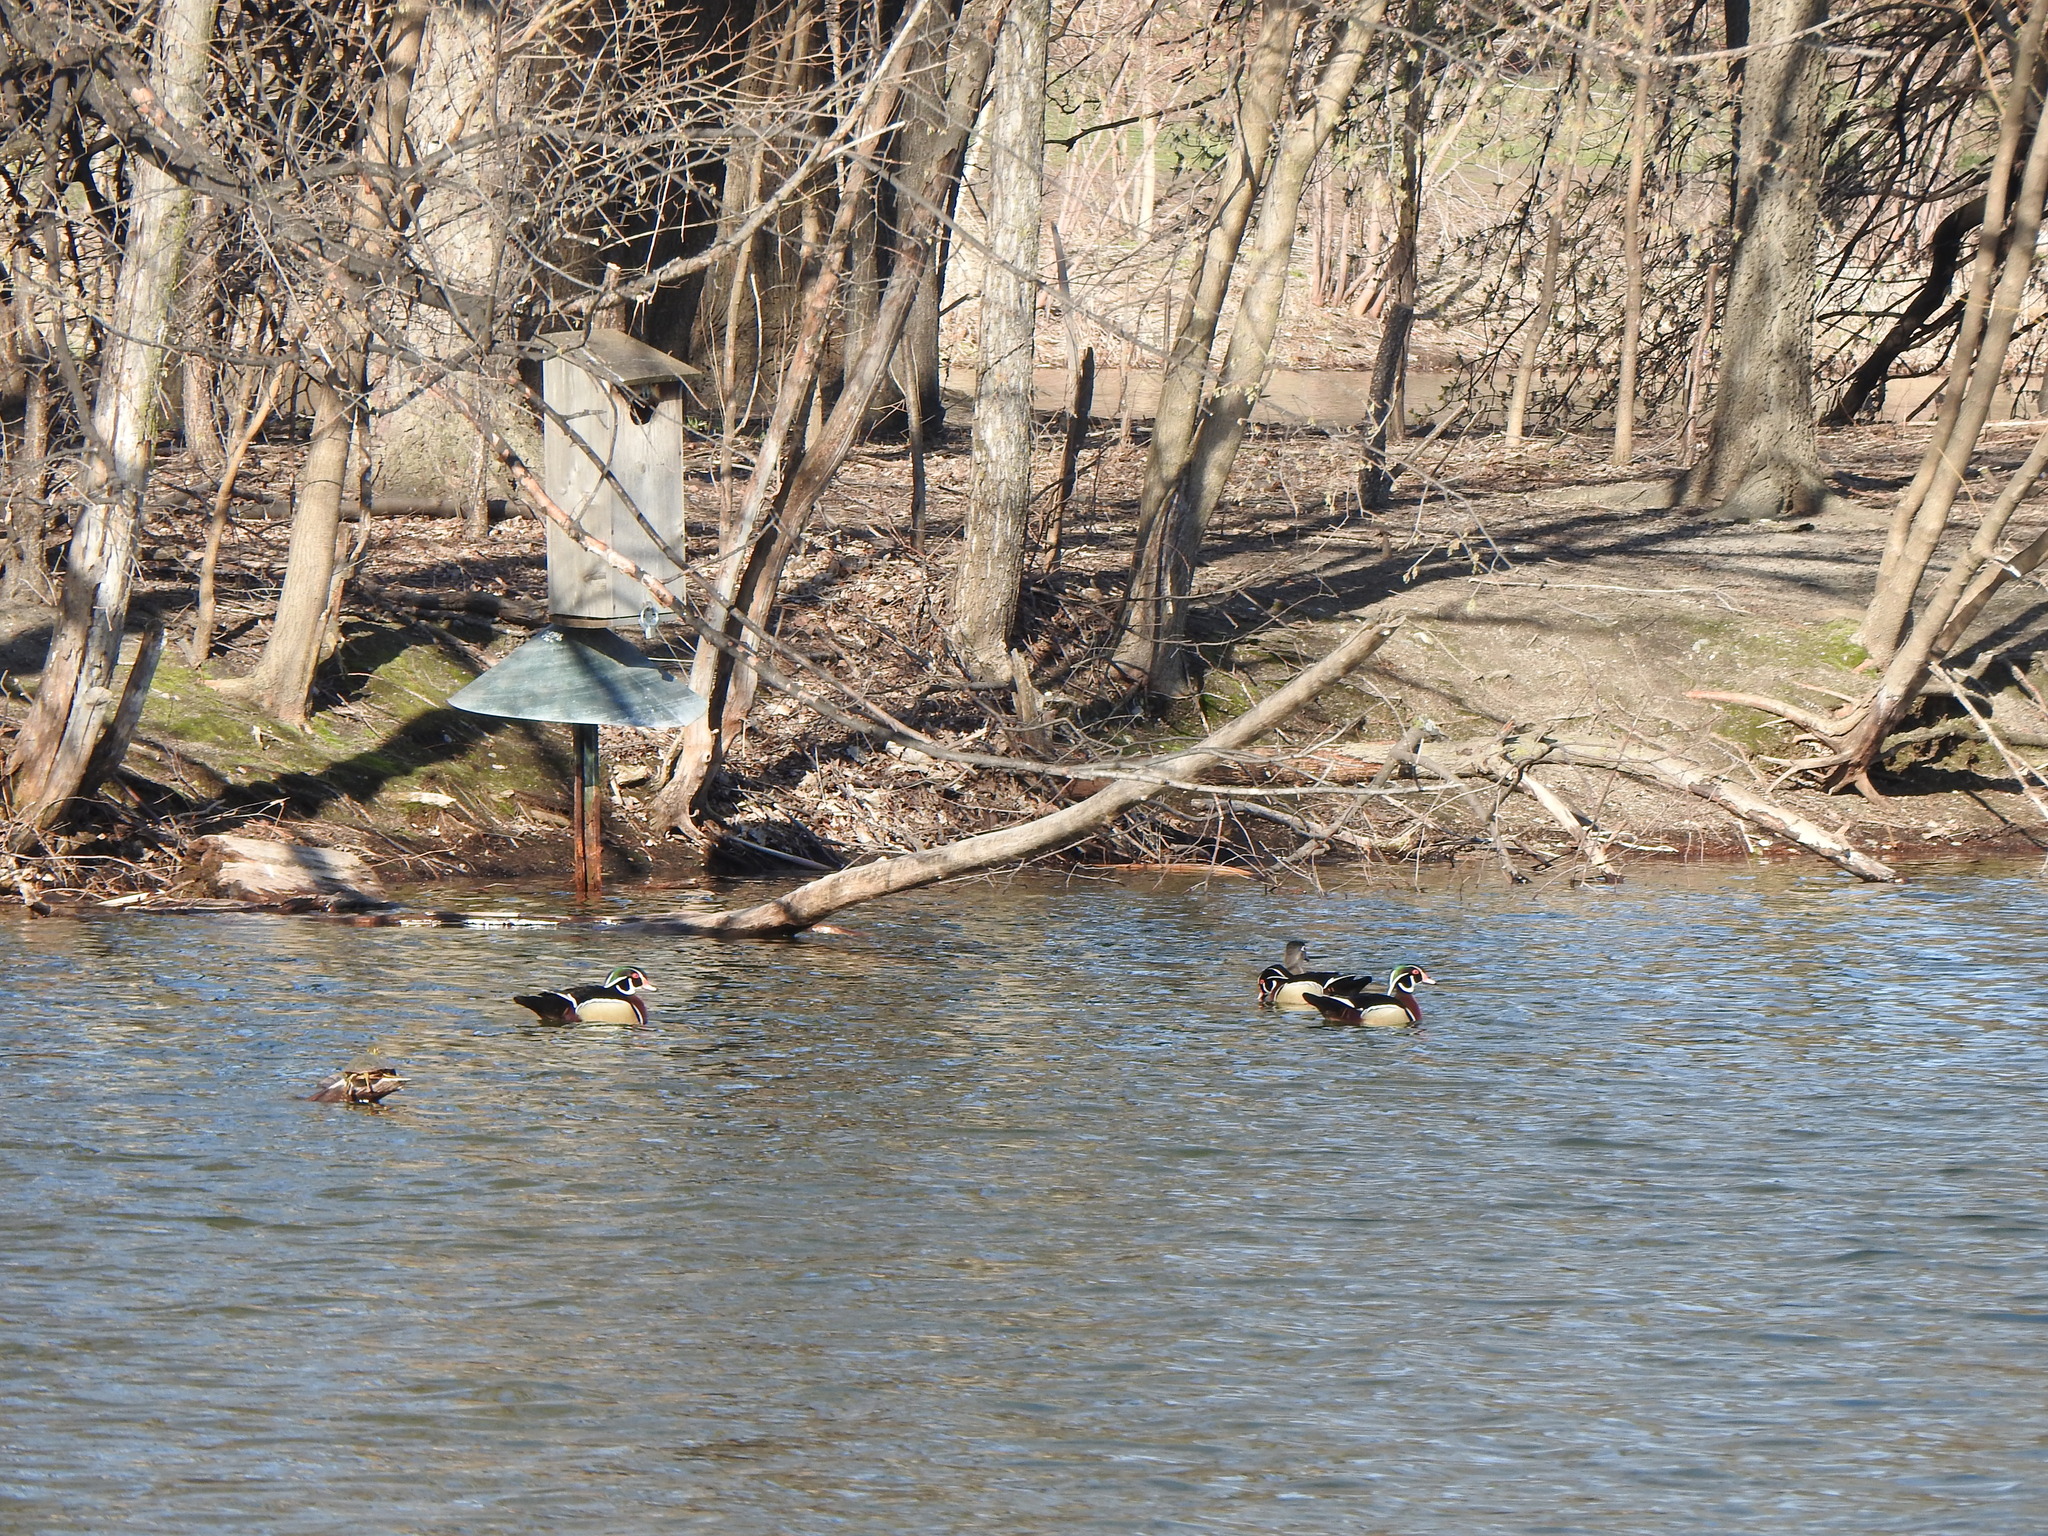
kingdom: Animalia
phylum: Chordata
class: Aves
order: Anseriformes
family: Anatidae
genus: Aix
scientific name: Aix sponsa
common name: Wood duck
